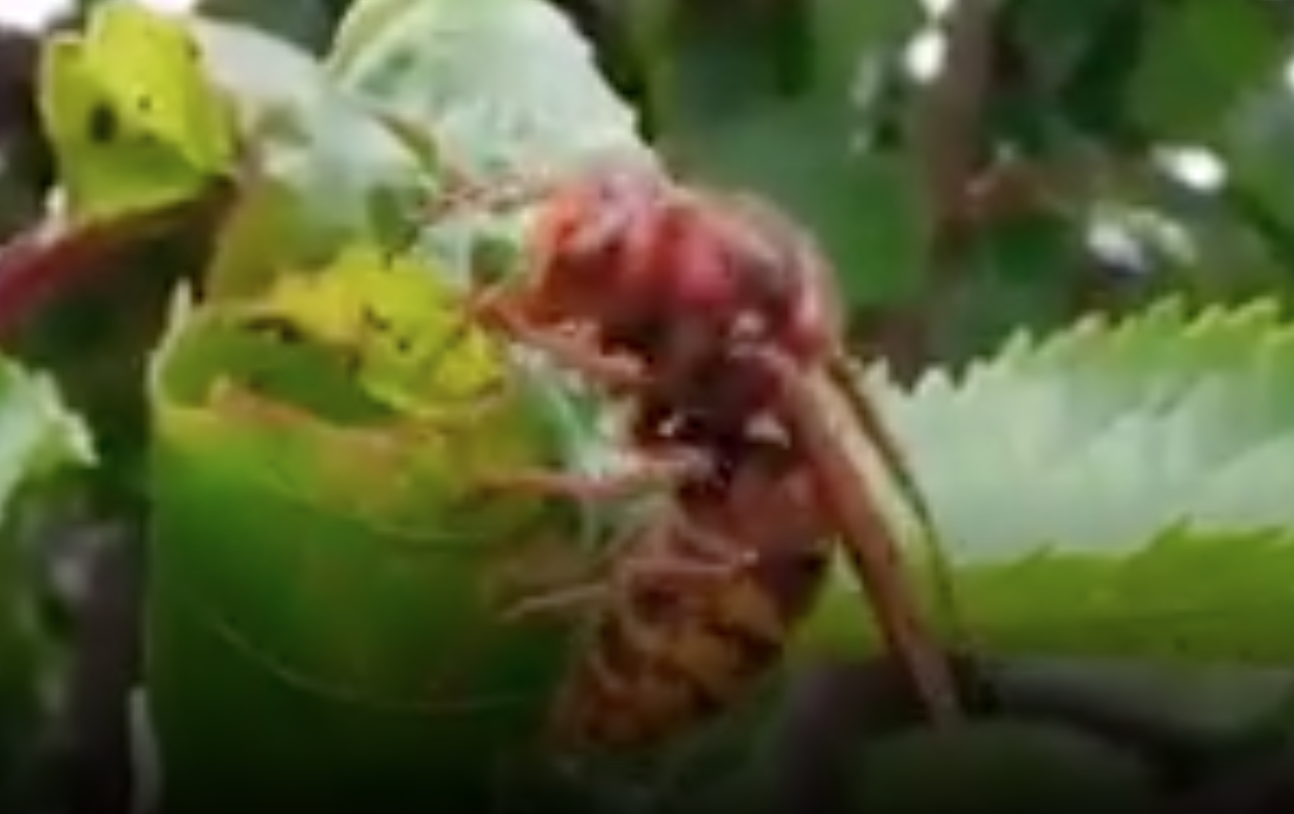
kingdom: Animalia
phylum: Arthropoda
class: Insecta
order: Hymenoptera
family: Vespidae
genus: Vespa
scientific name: Vespa crabro
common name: Hornet
